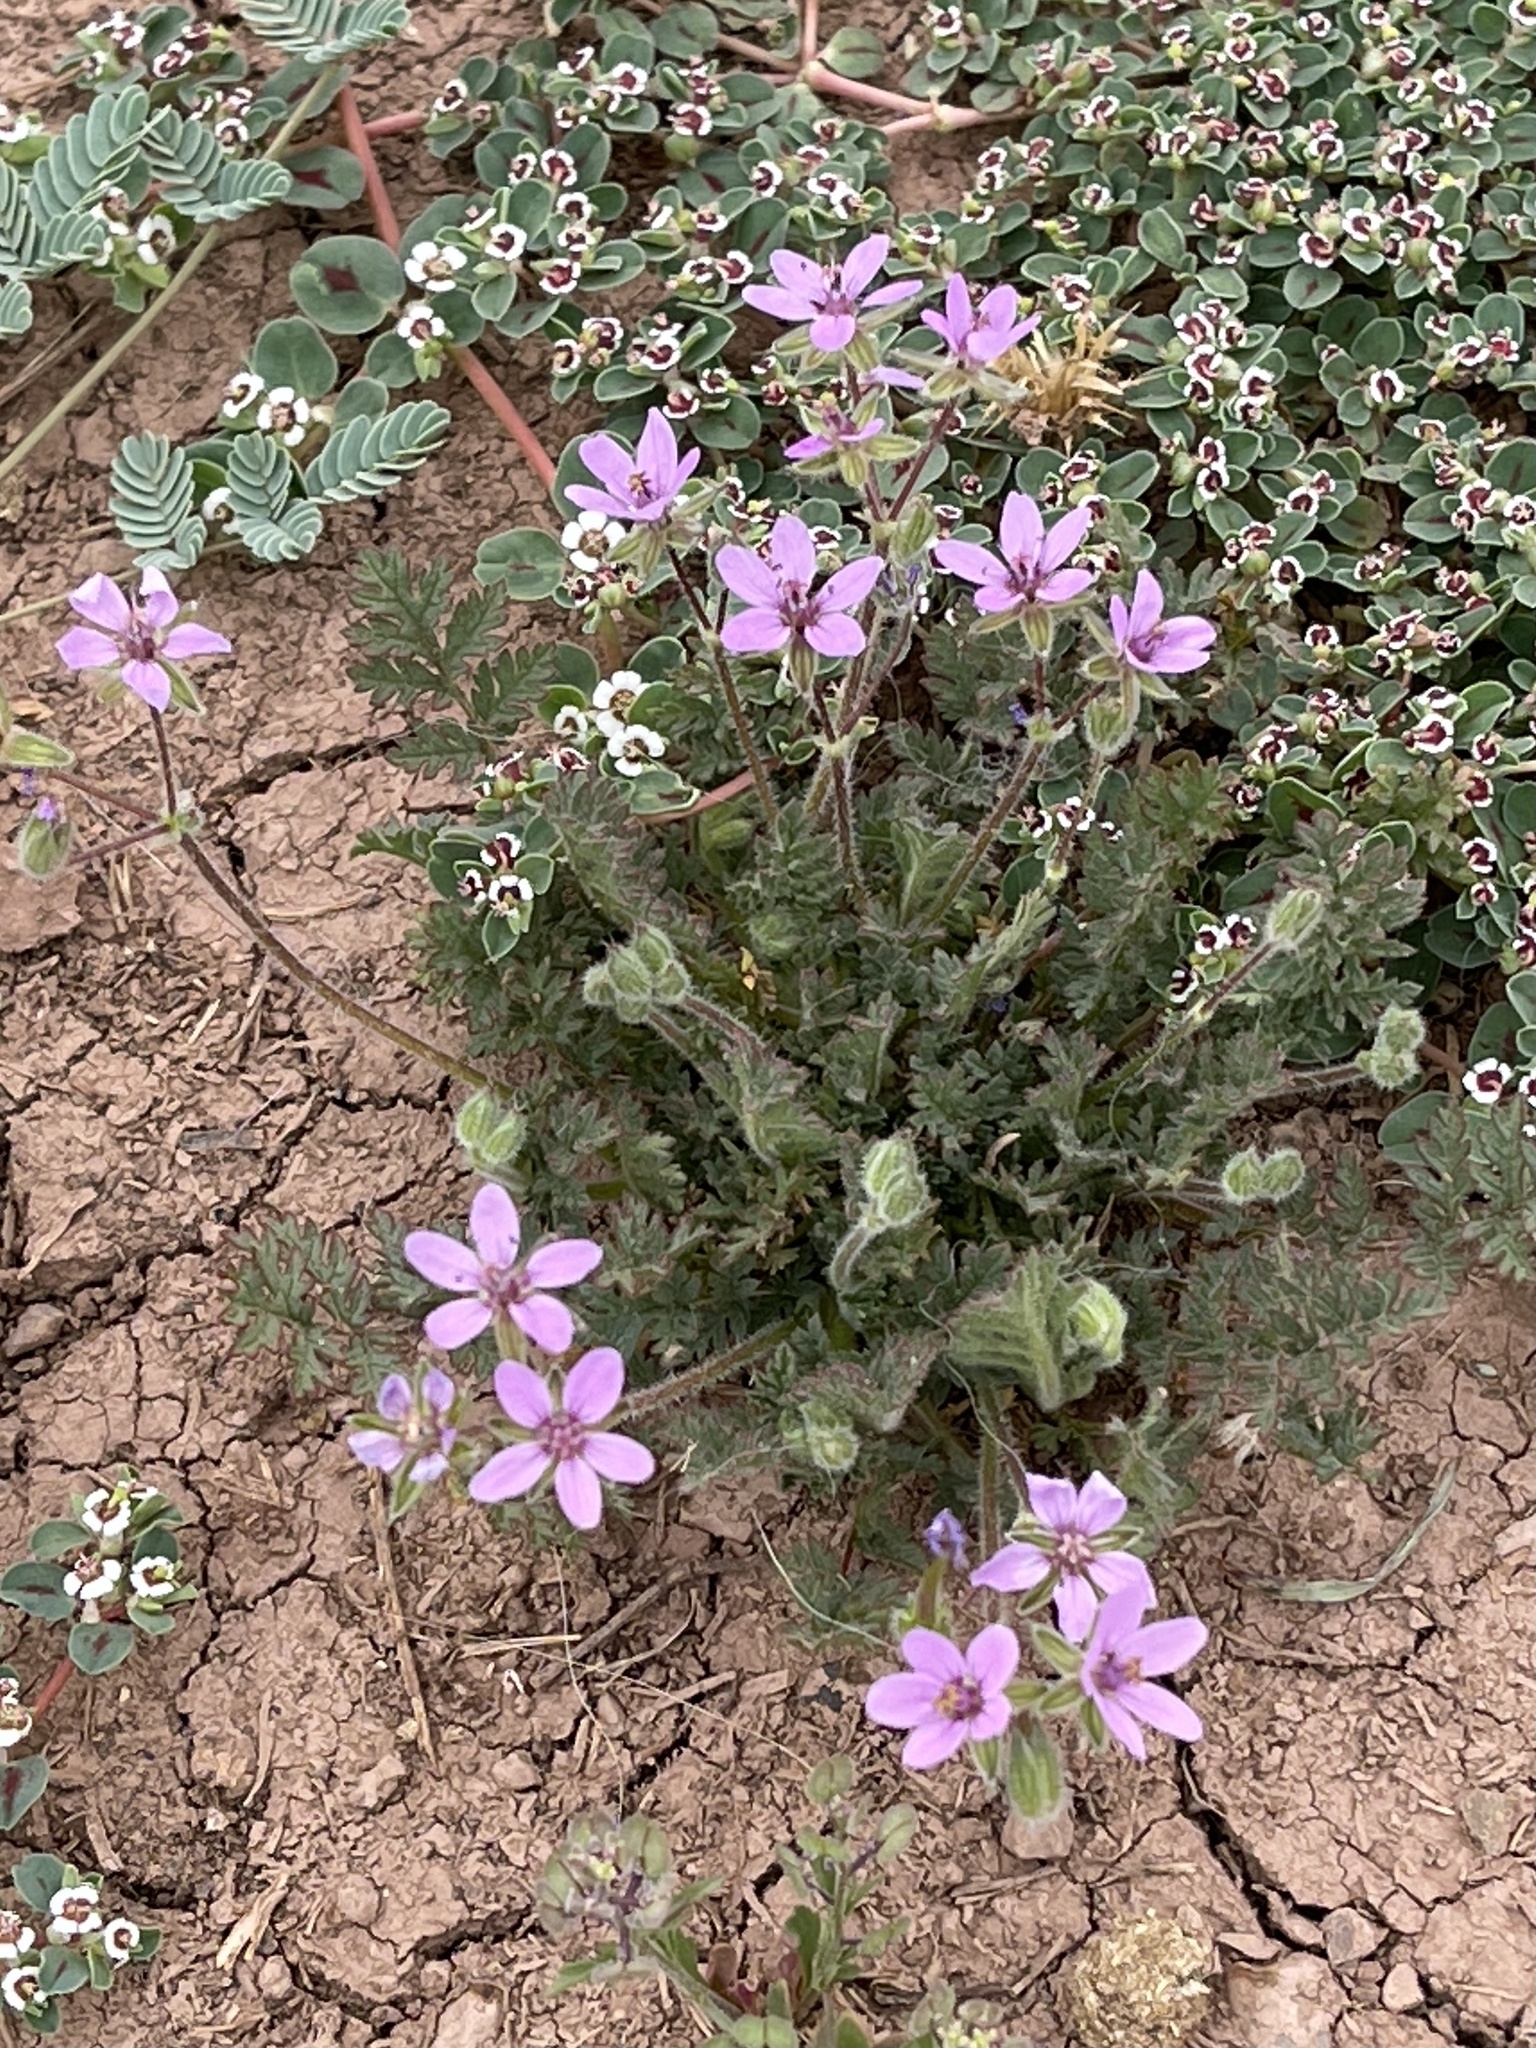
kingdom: Plantae
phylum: Tracheophyta
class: Magnoliopsida
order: Geraniales
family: Geraniaceae
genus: Erodium
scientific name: Erodium cicutarium
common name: Common stork's-bill
